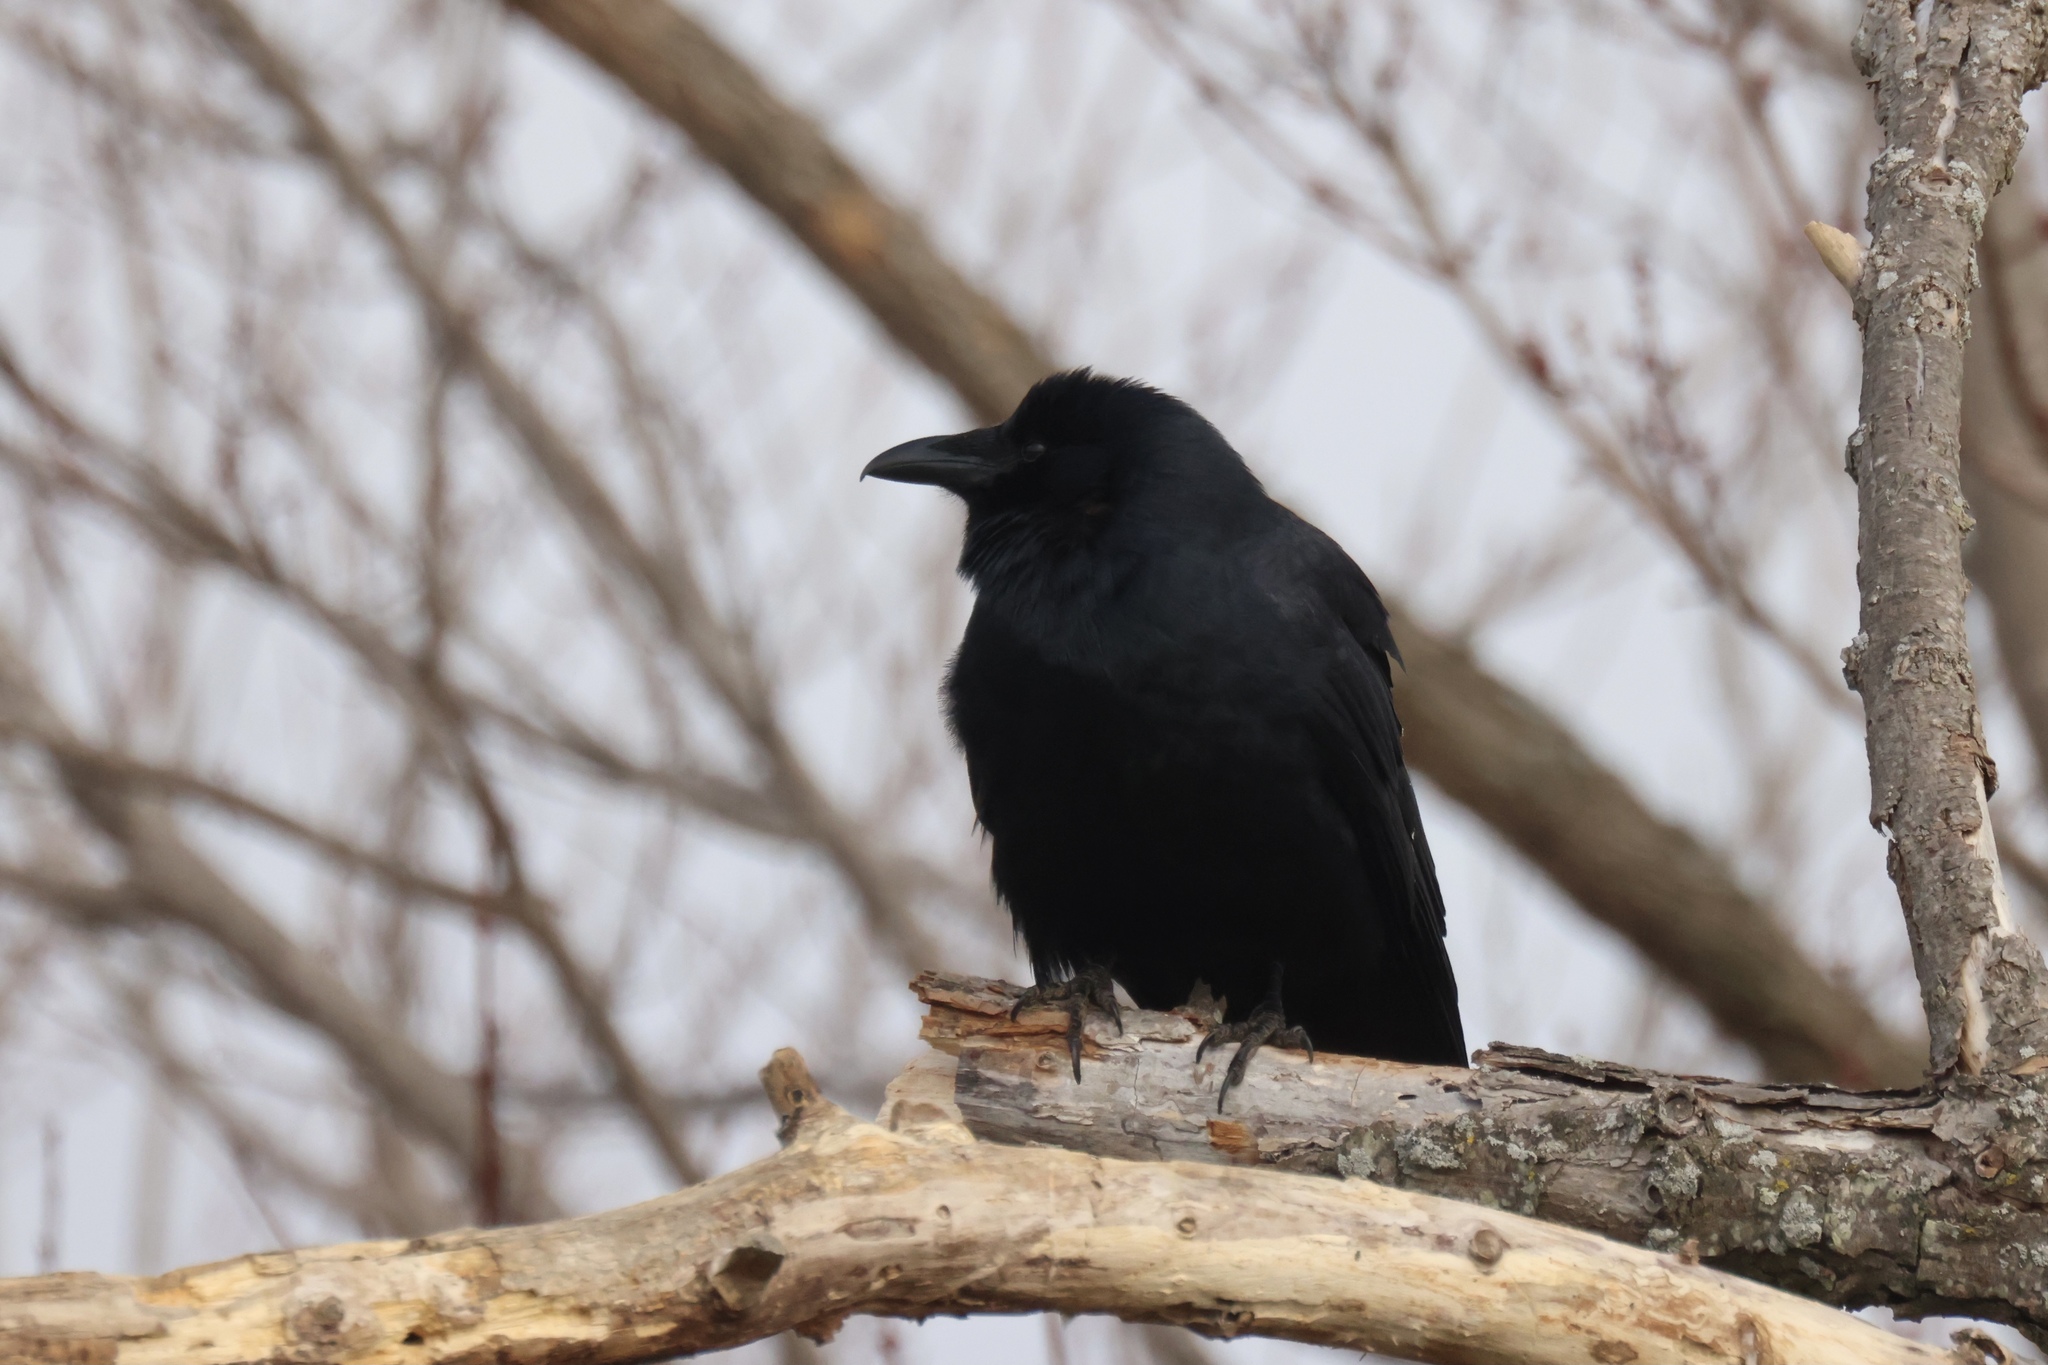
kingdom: Animalia
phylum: Chordata
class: Aves
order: Passeriformes
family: Corvidae
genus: Corvus
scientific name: Corvus ossifragus
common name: Fish crow
